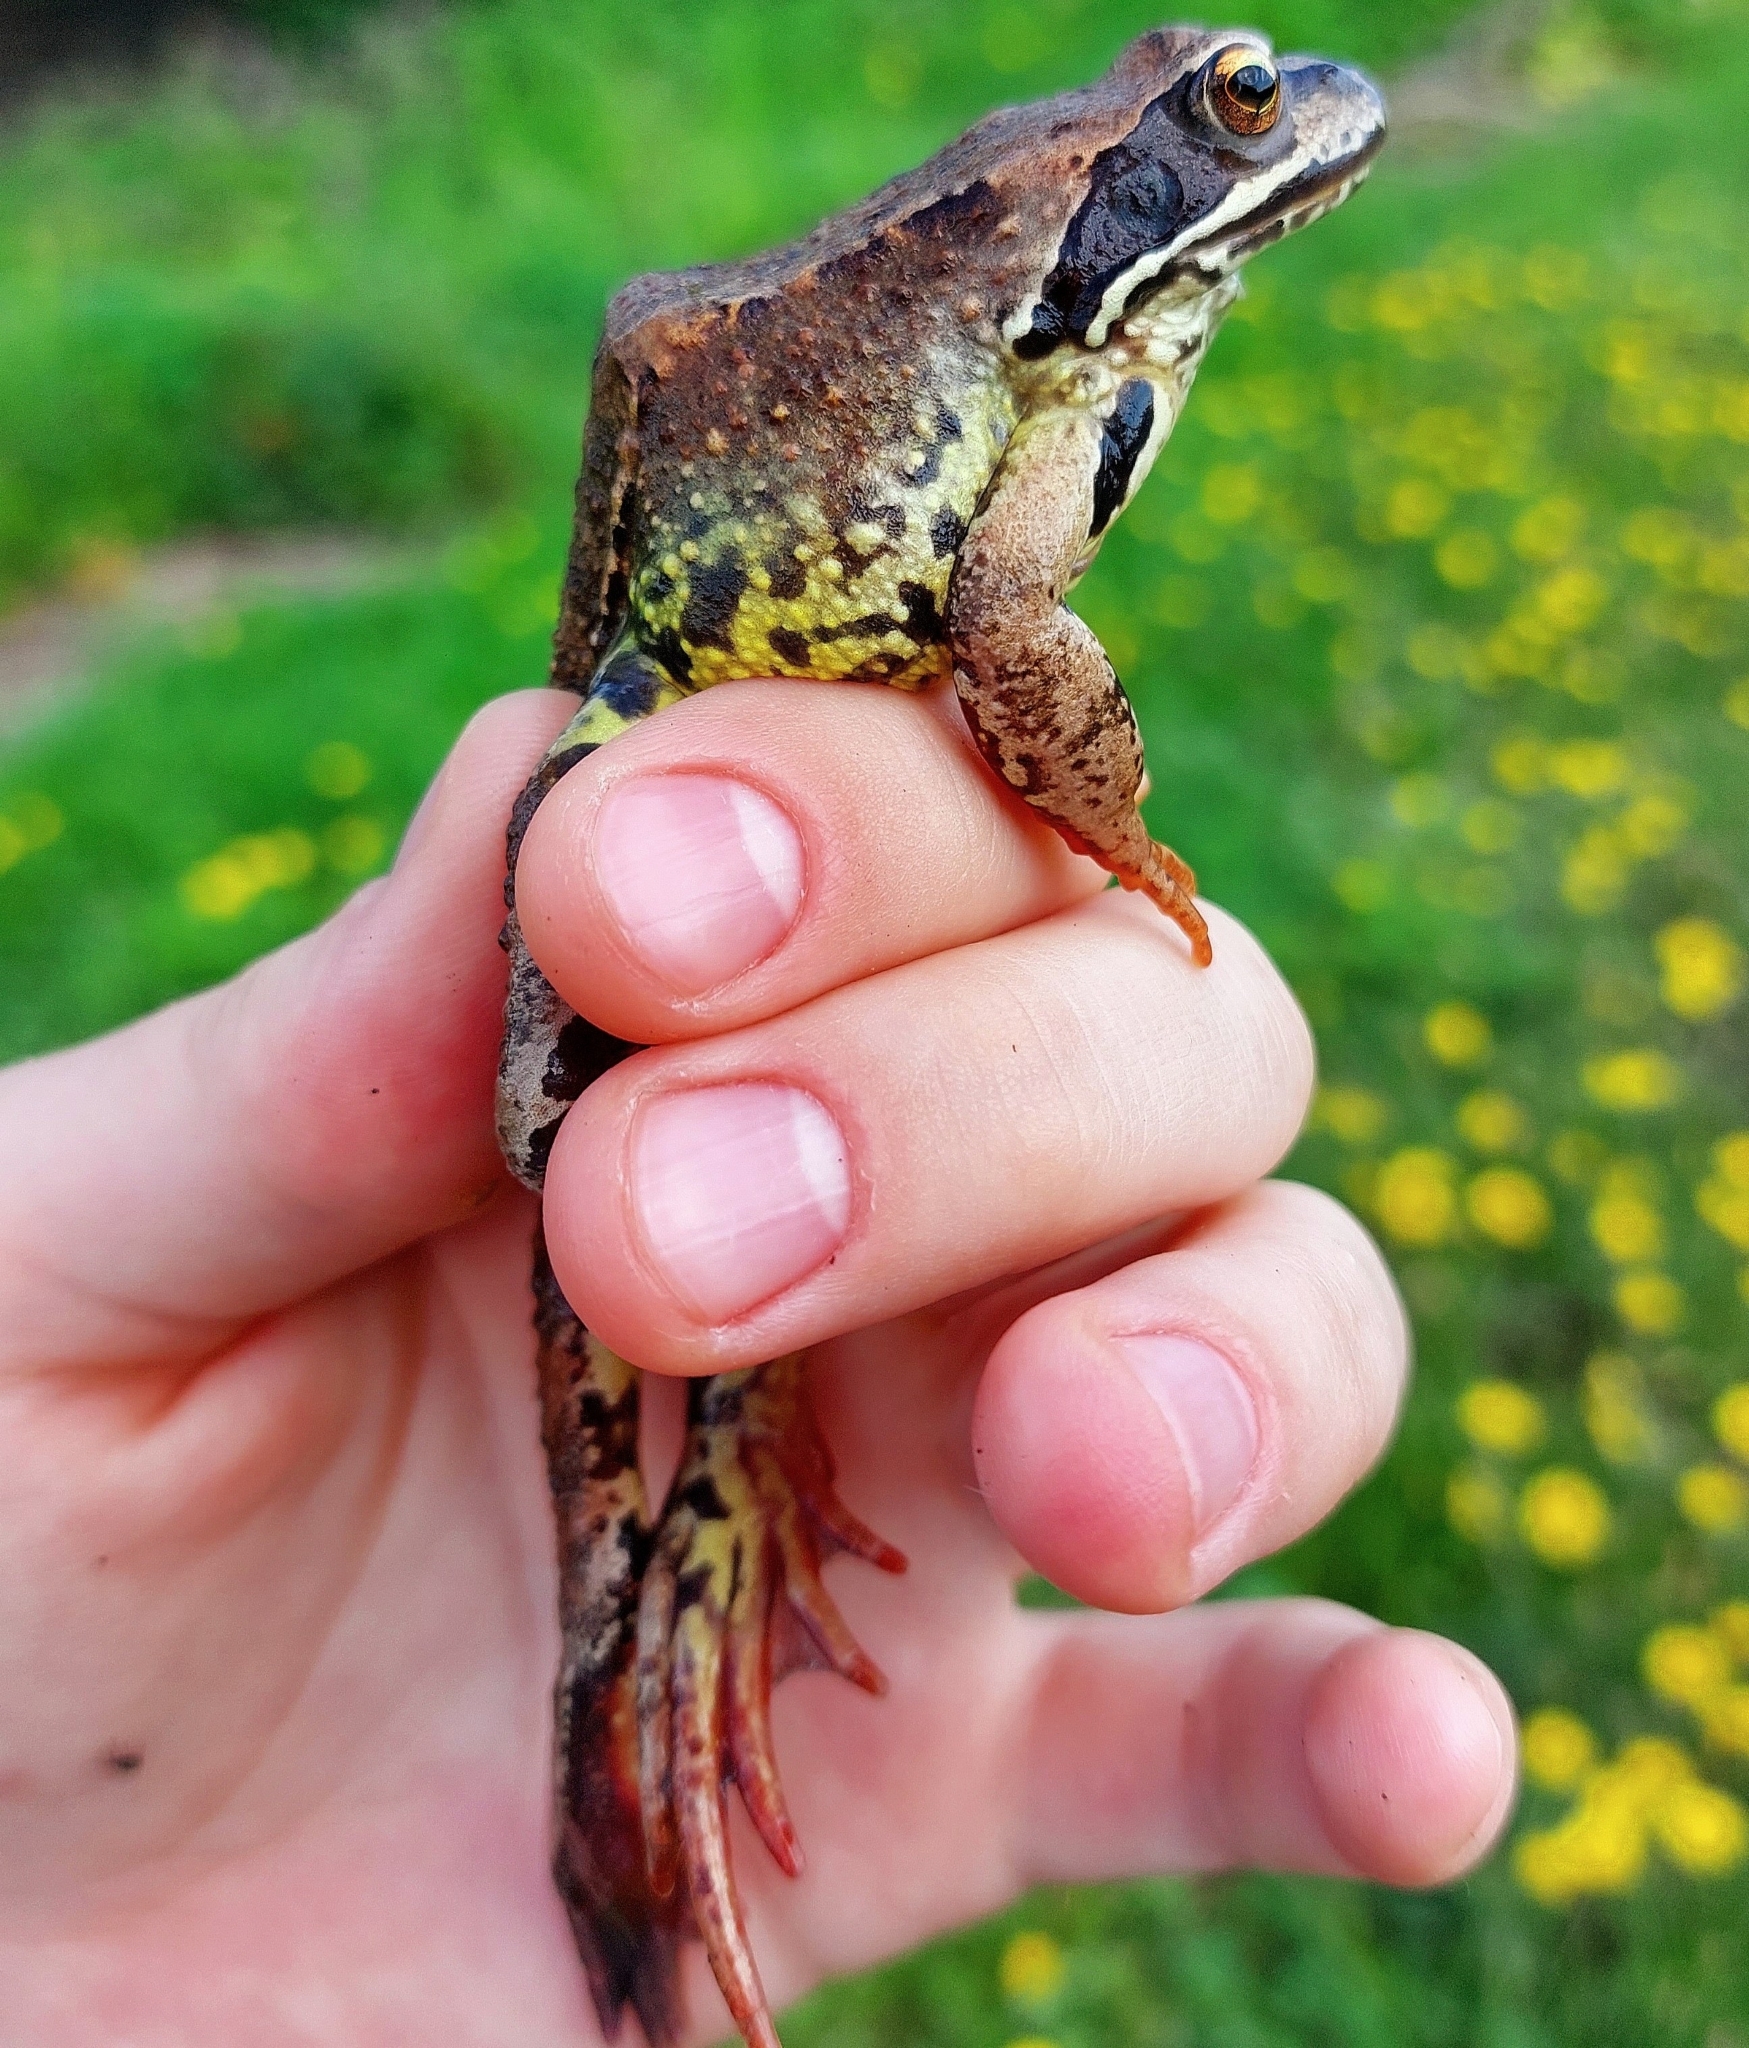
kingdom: Animalia
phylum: Chordata
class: Amphibia
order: Anura
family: Ranidae
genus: Rana
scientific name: Rana temporaria
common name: Common frog
